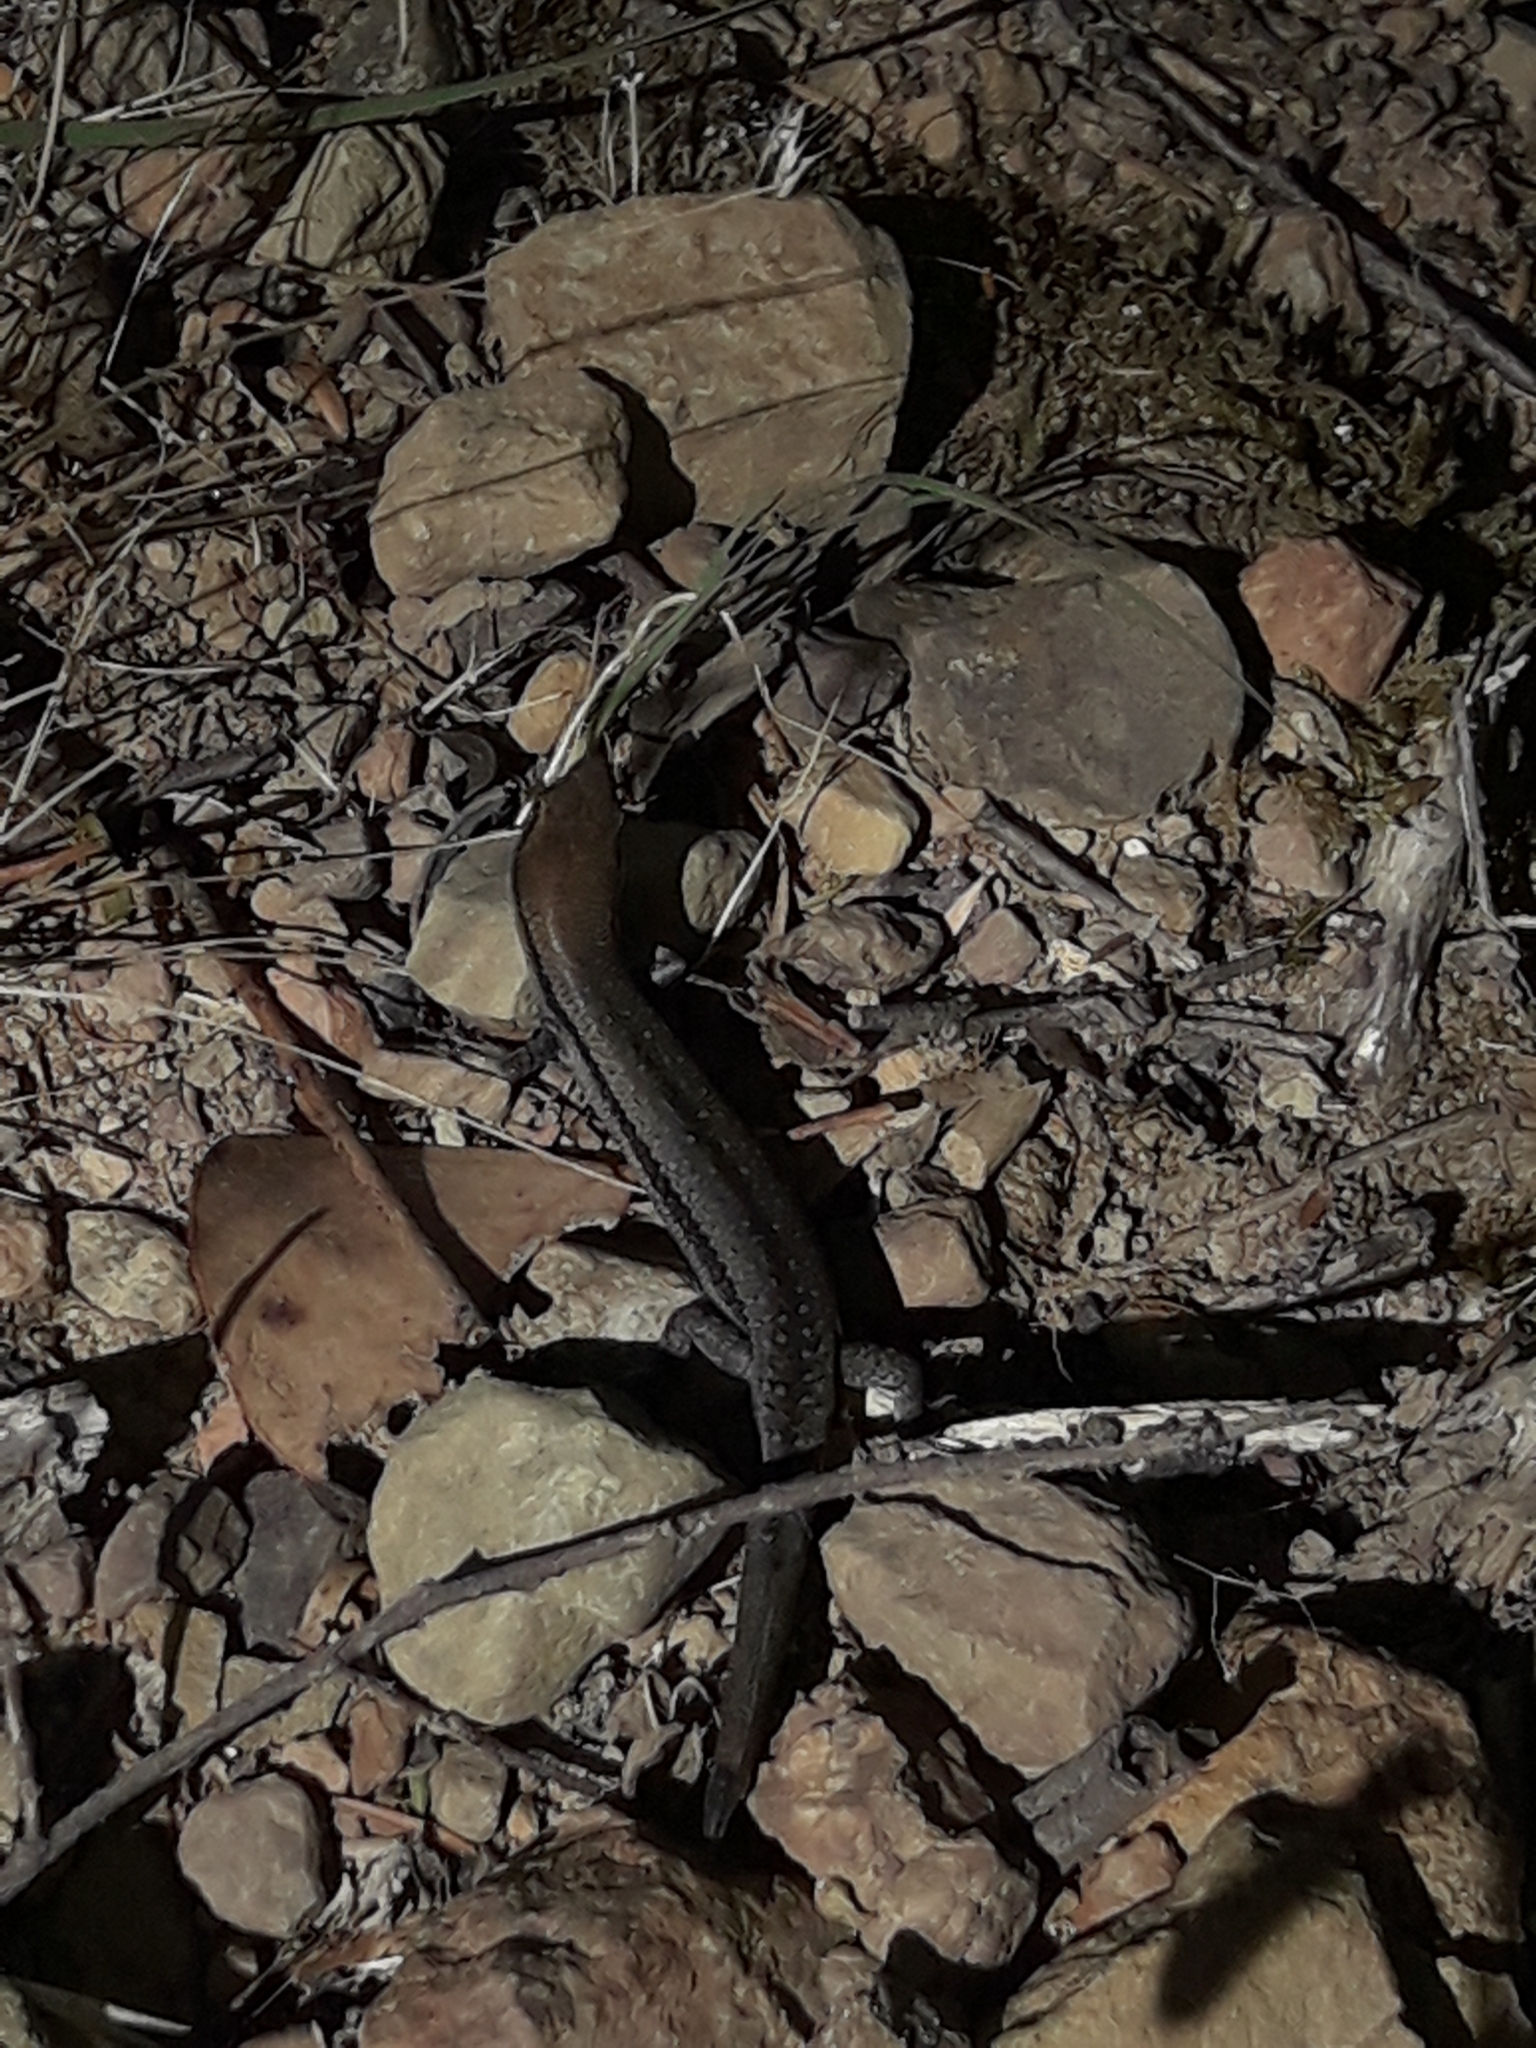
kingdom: Animalia
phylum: Chordata
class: Squamata
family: Scincidae
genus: Lampropholis
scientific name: Lampropholis guichenoti
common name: Garden skink
